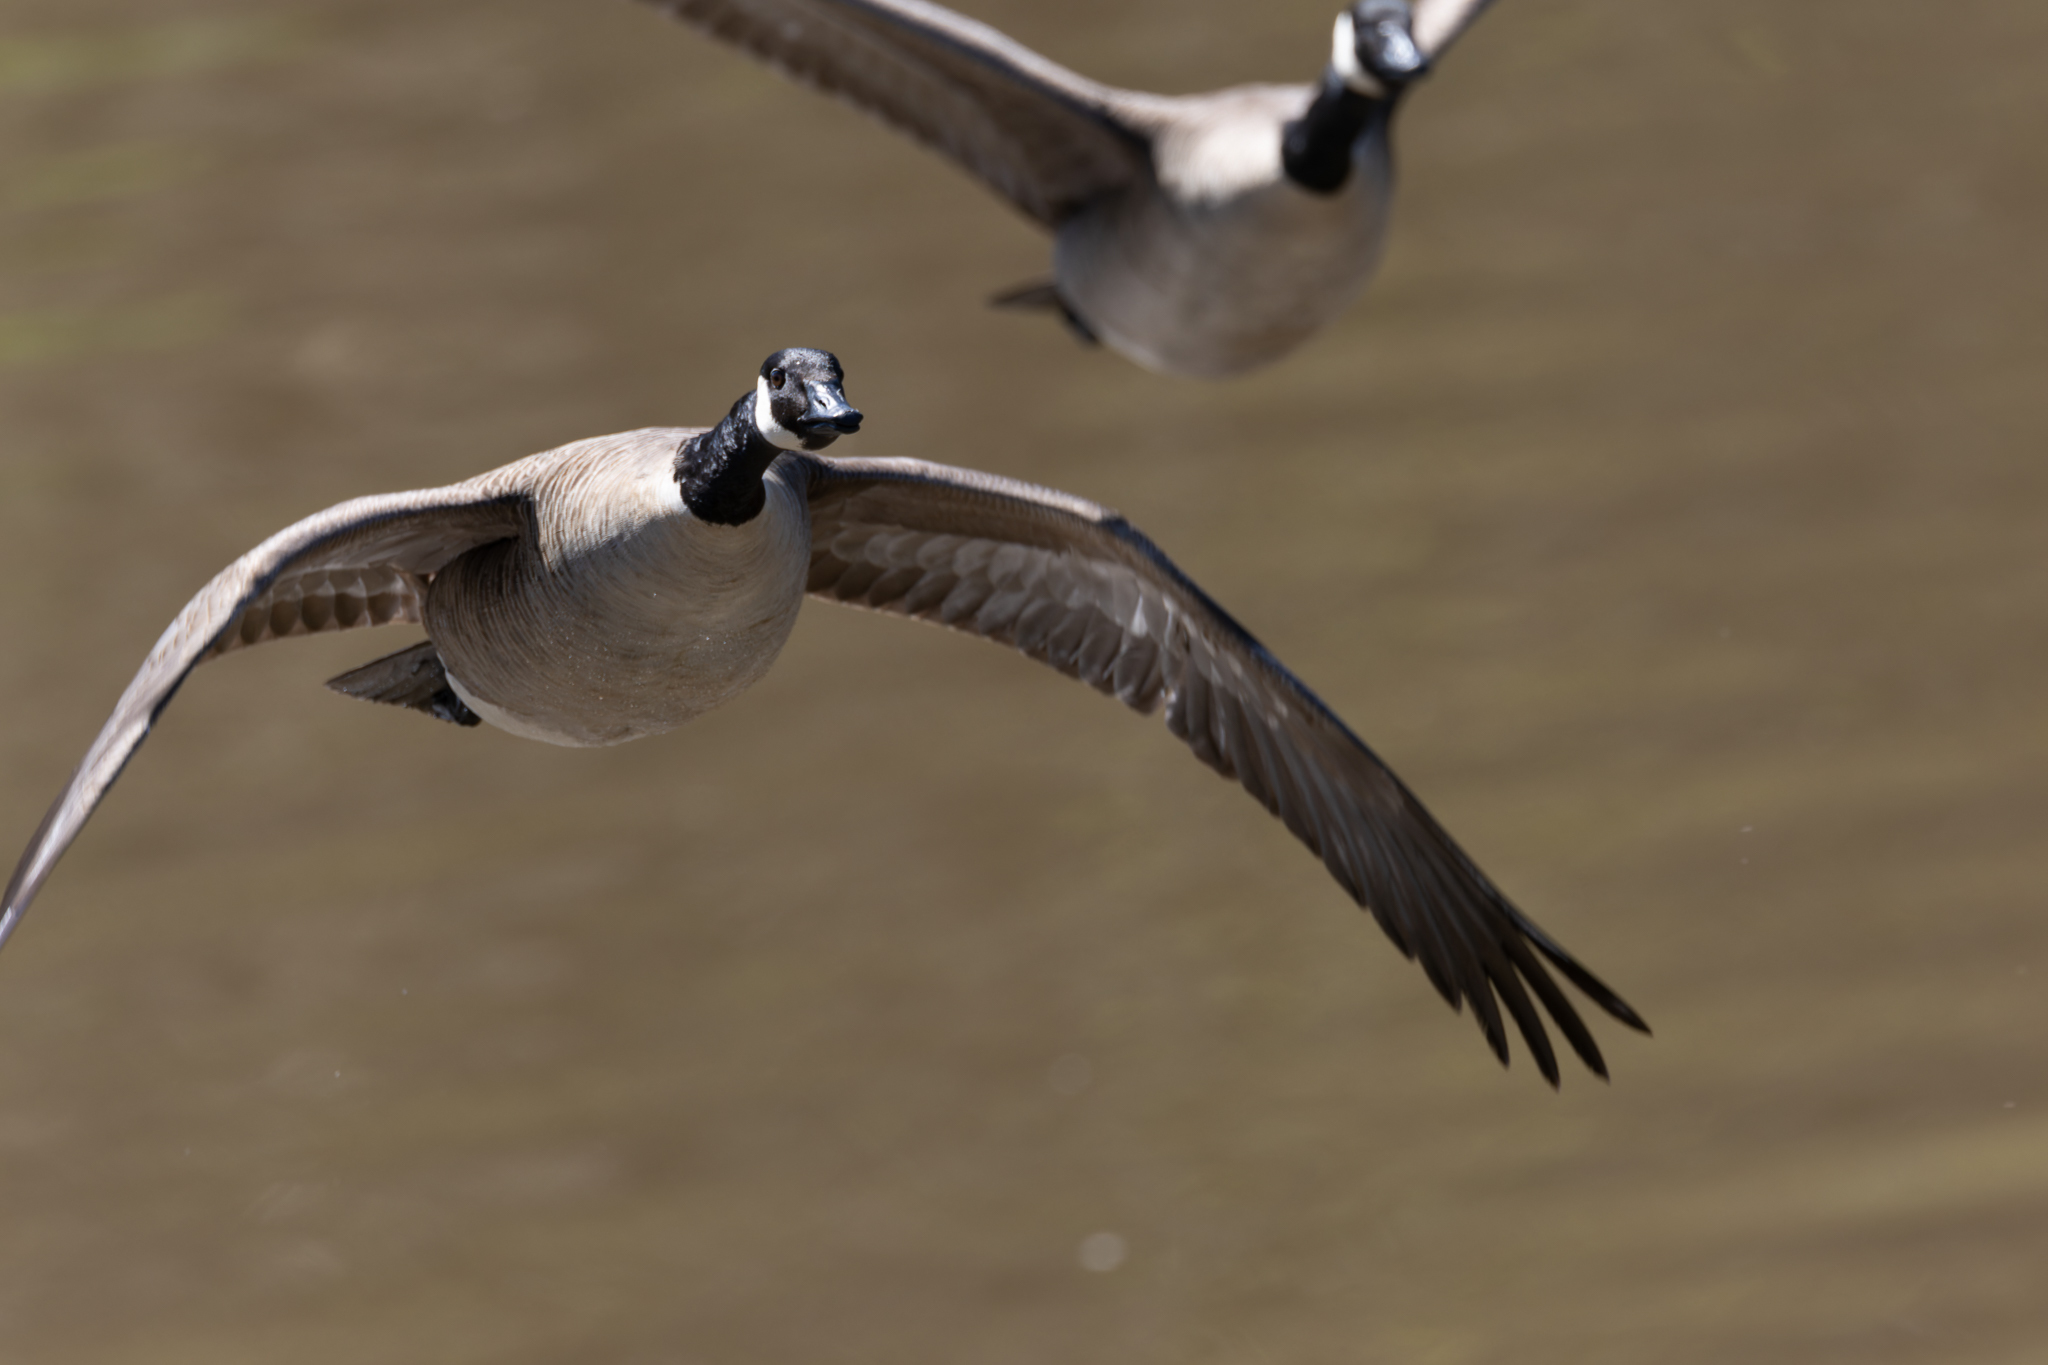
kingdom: Animalia
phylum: Chordata
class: Aves
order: Anseriformes
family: Anatidae
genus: Branta
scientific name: Branta canadensis
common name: Canada goose
